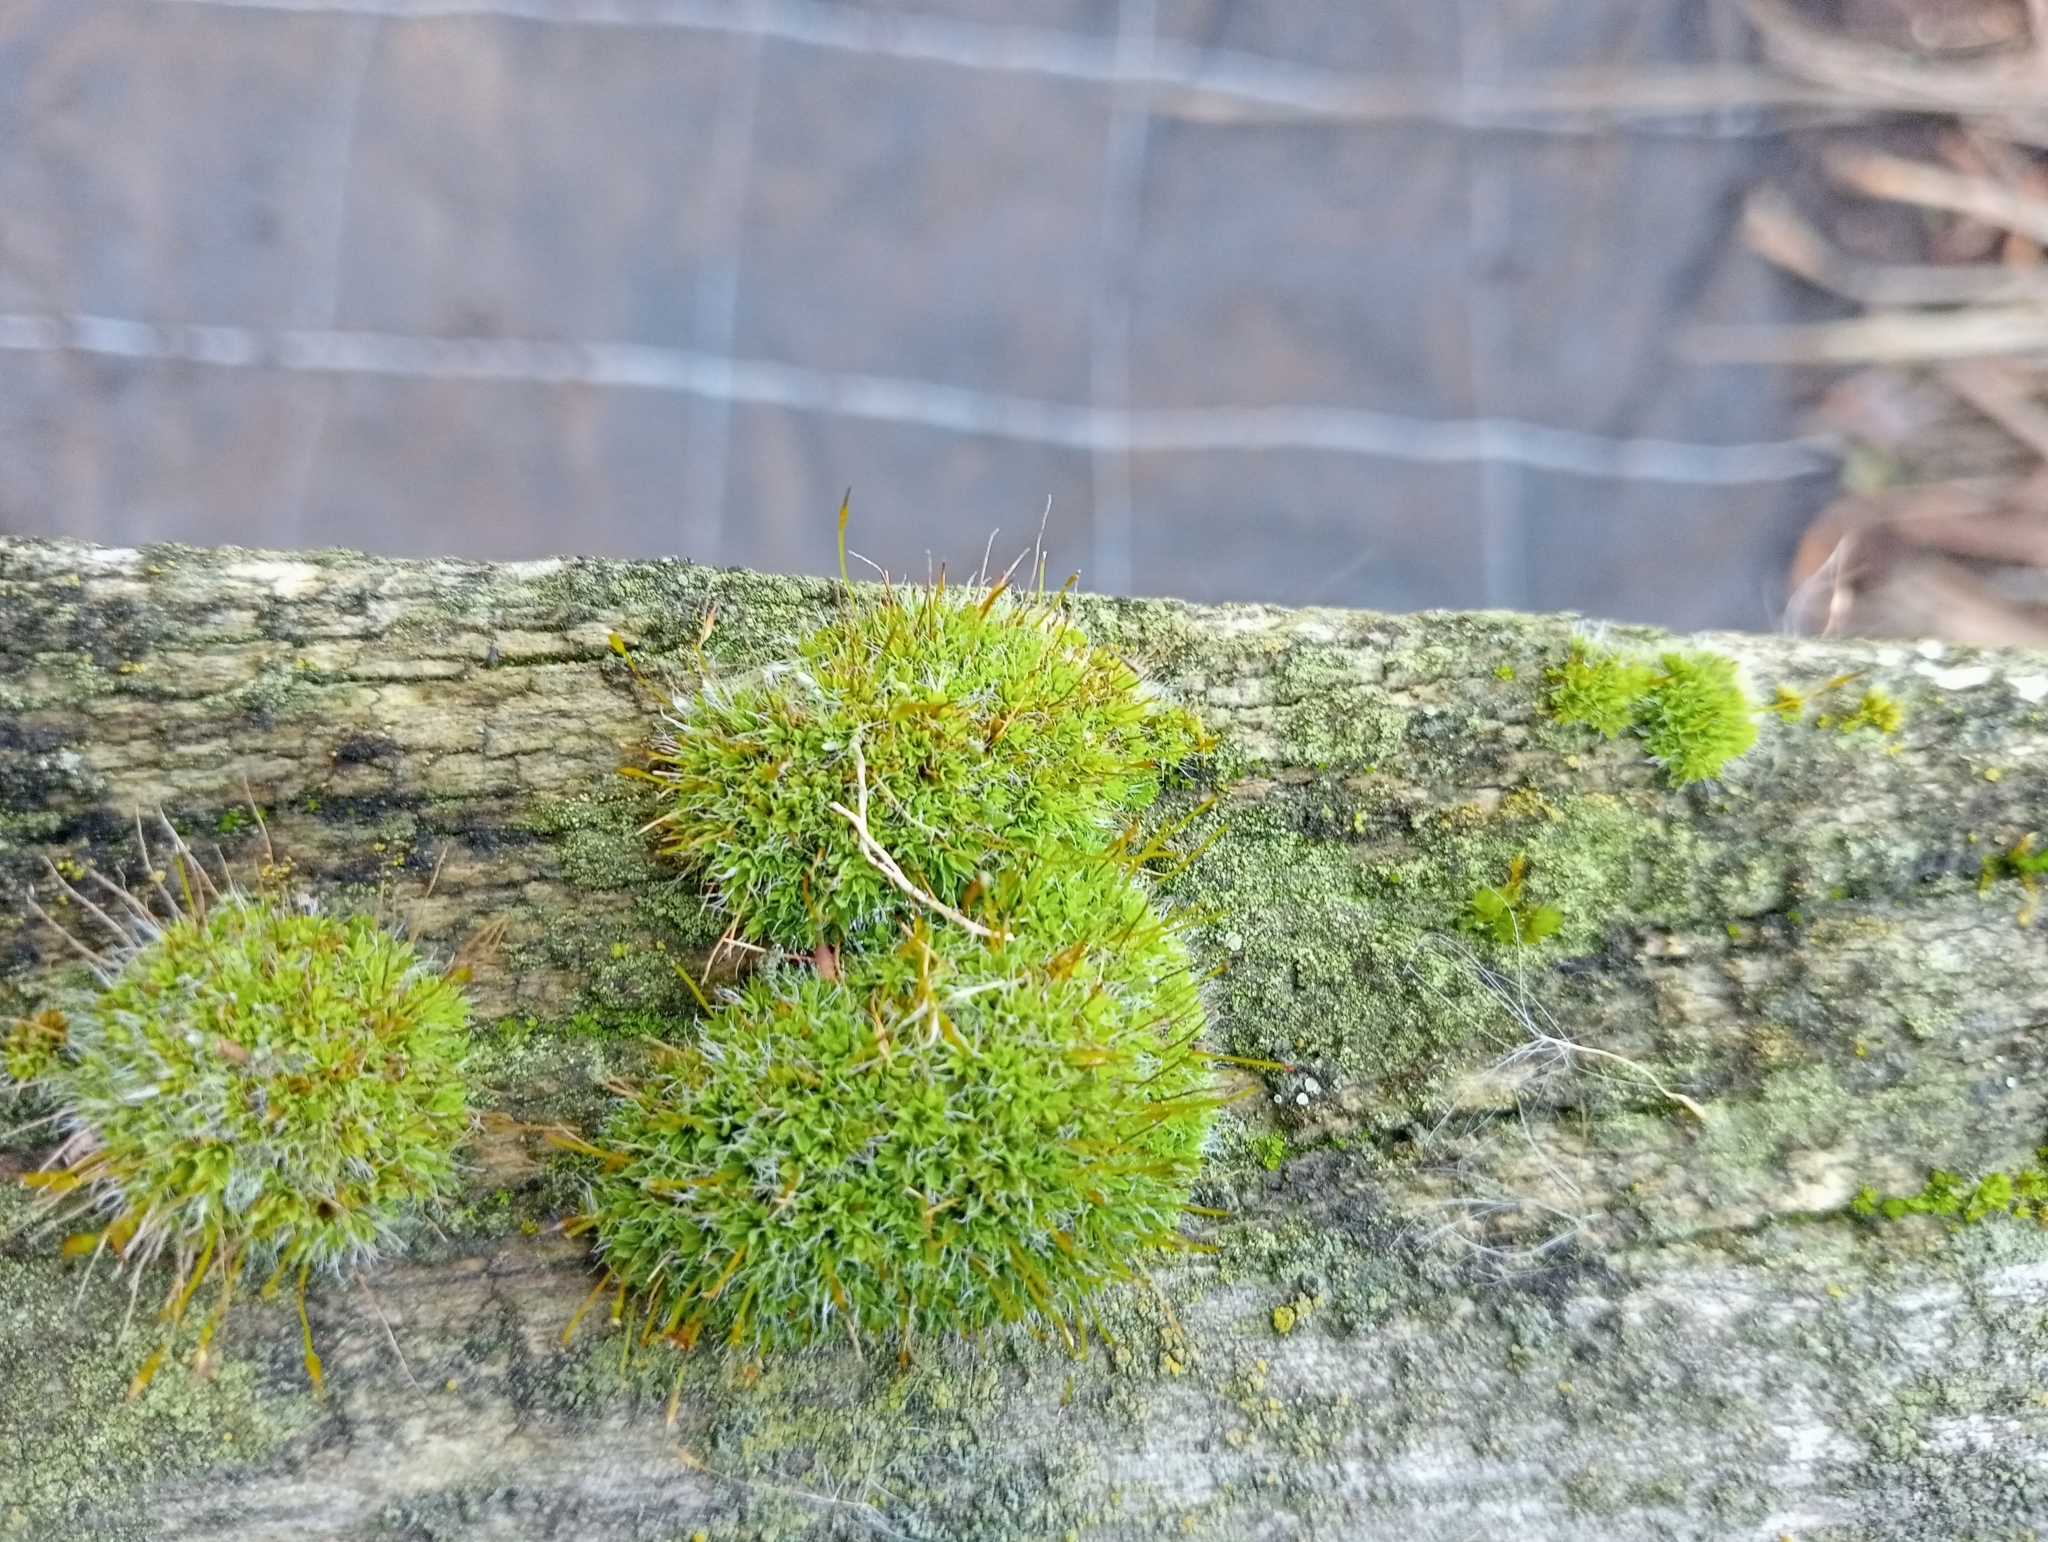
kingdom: Plantae
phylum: Bryophyta
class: Bryopsida
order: Pottiales
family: Pottiaceae
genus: Tortula
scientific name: Tortula muralis
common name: Wall screw-moss
